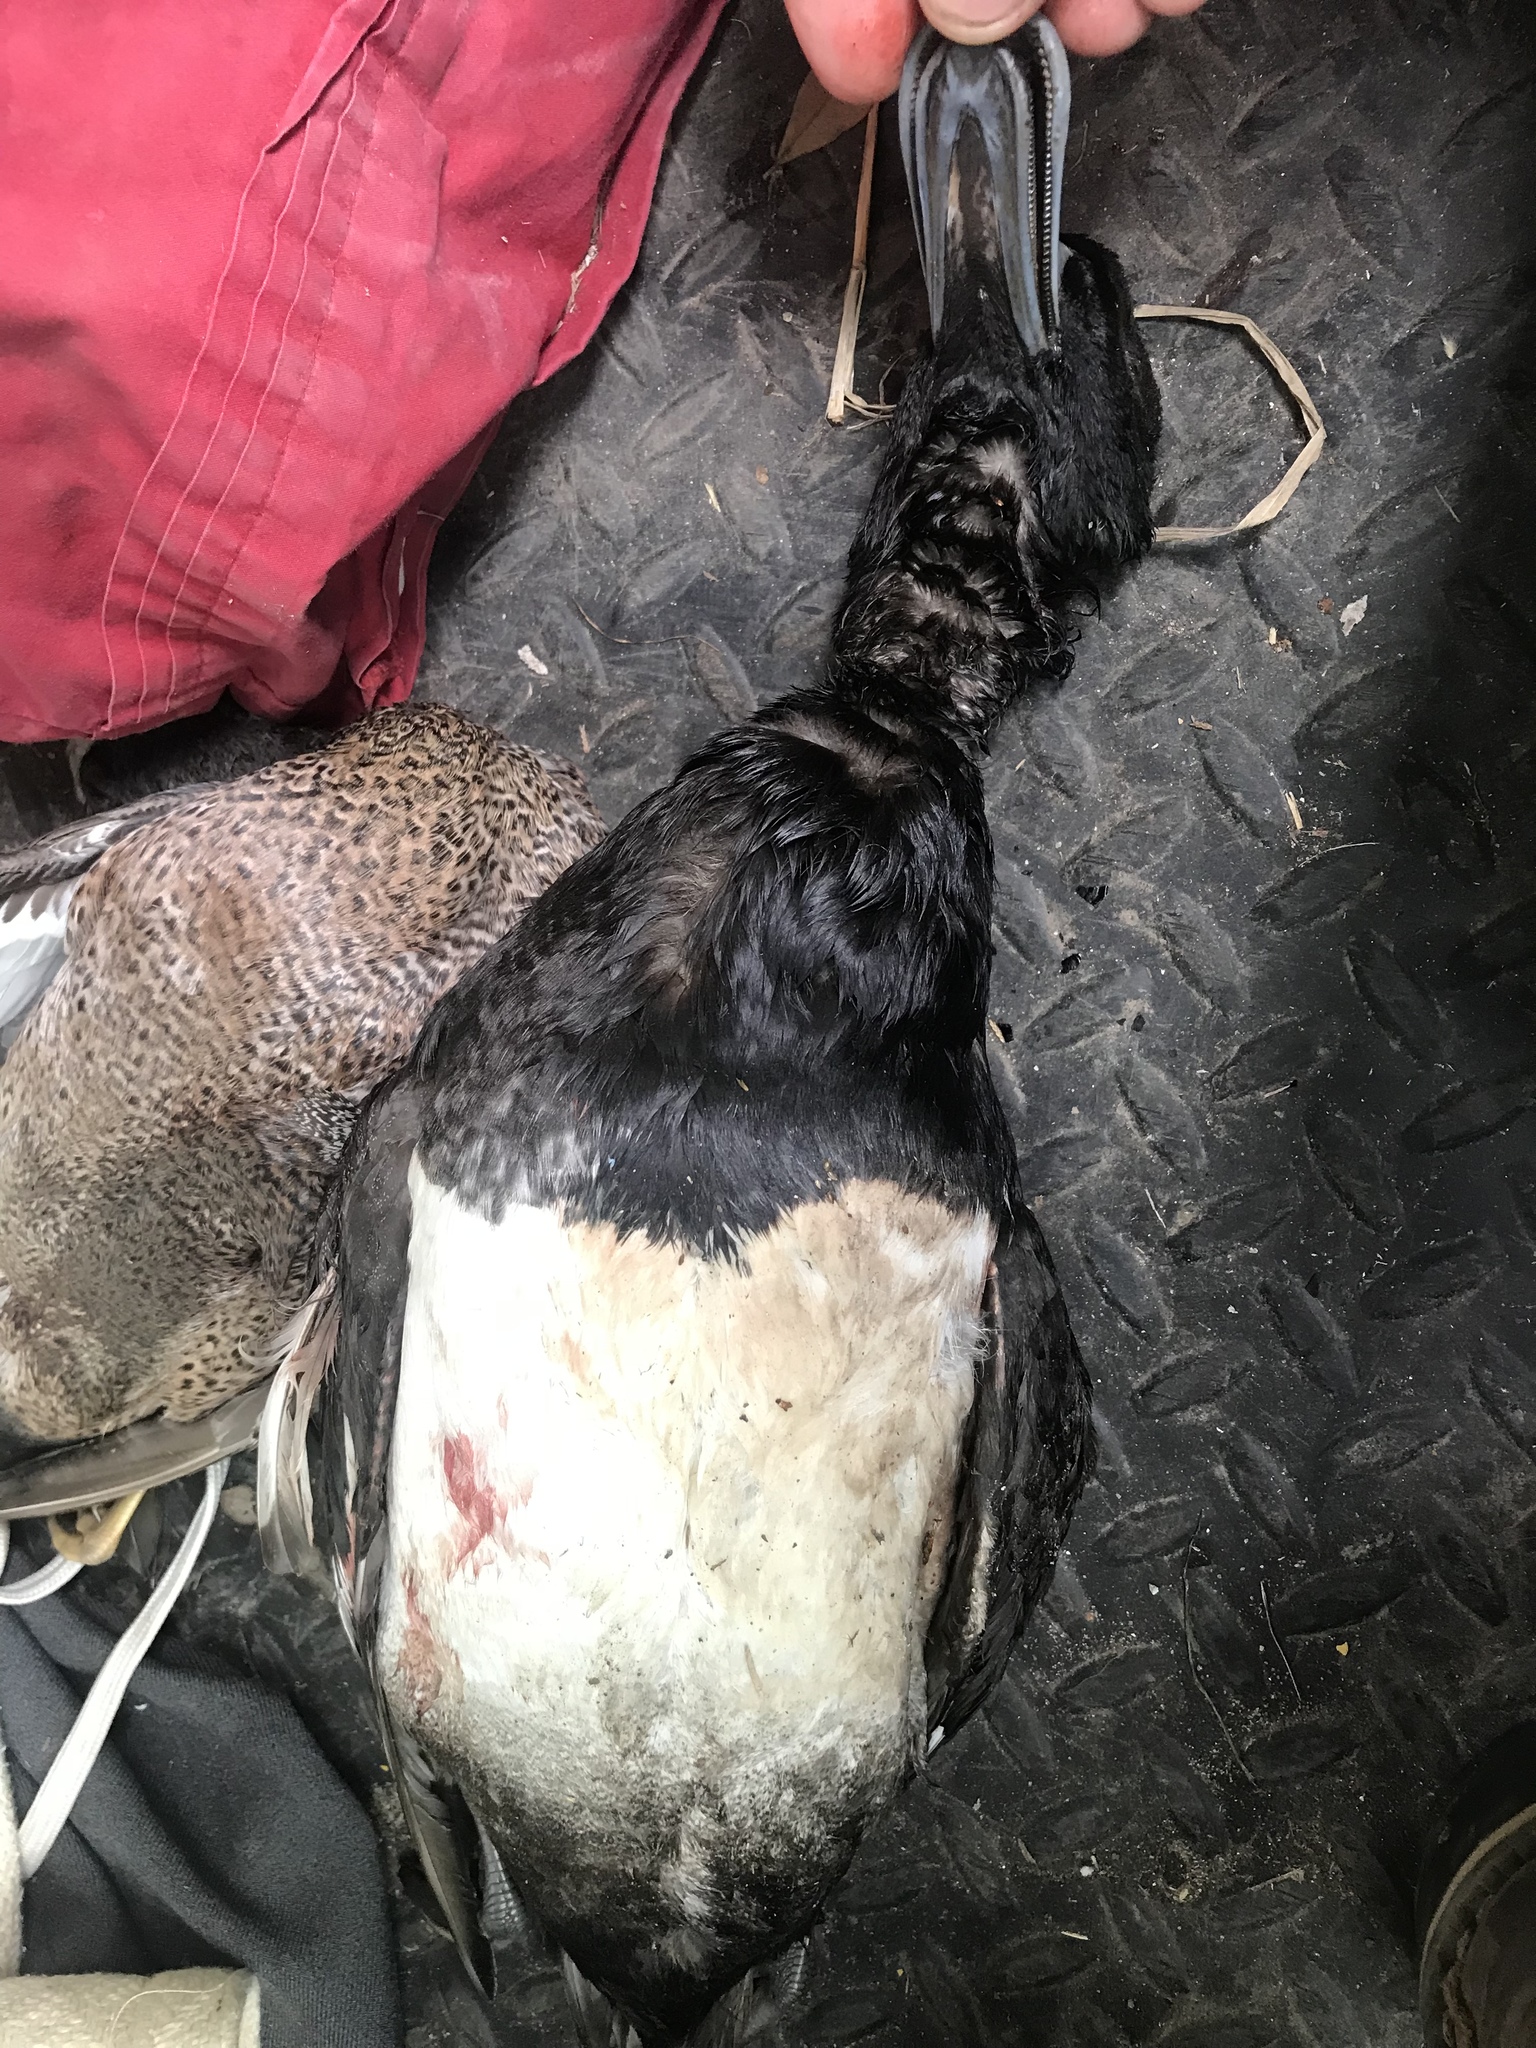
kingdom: Animalia
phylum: Chordata
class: Aves
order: Anseriformes
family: Anatidae
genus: Aythya
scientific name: Aythya affinis
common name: Lesser scaup
